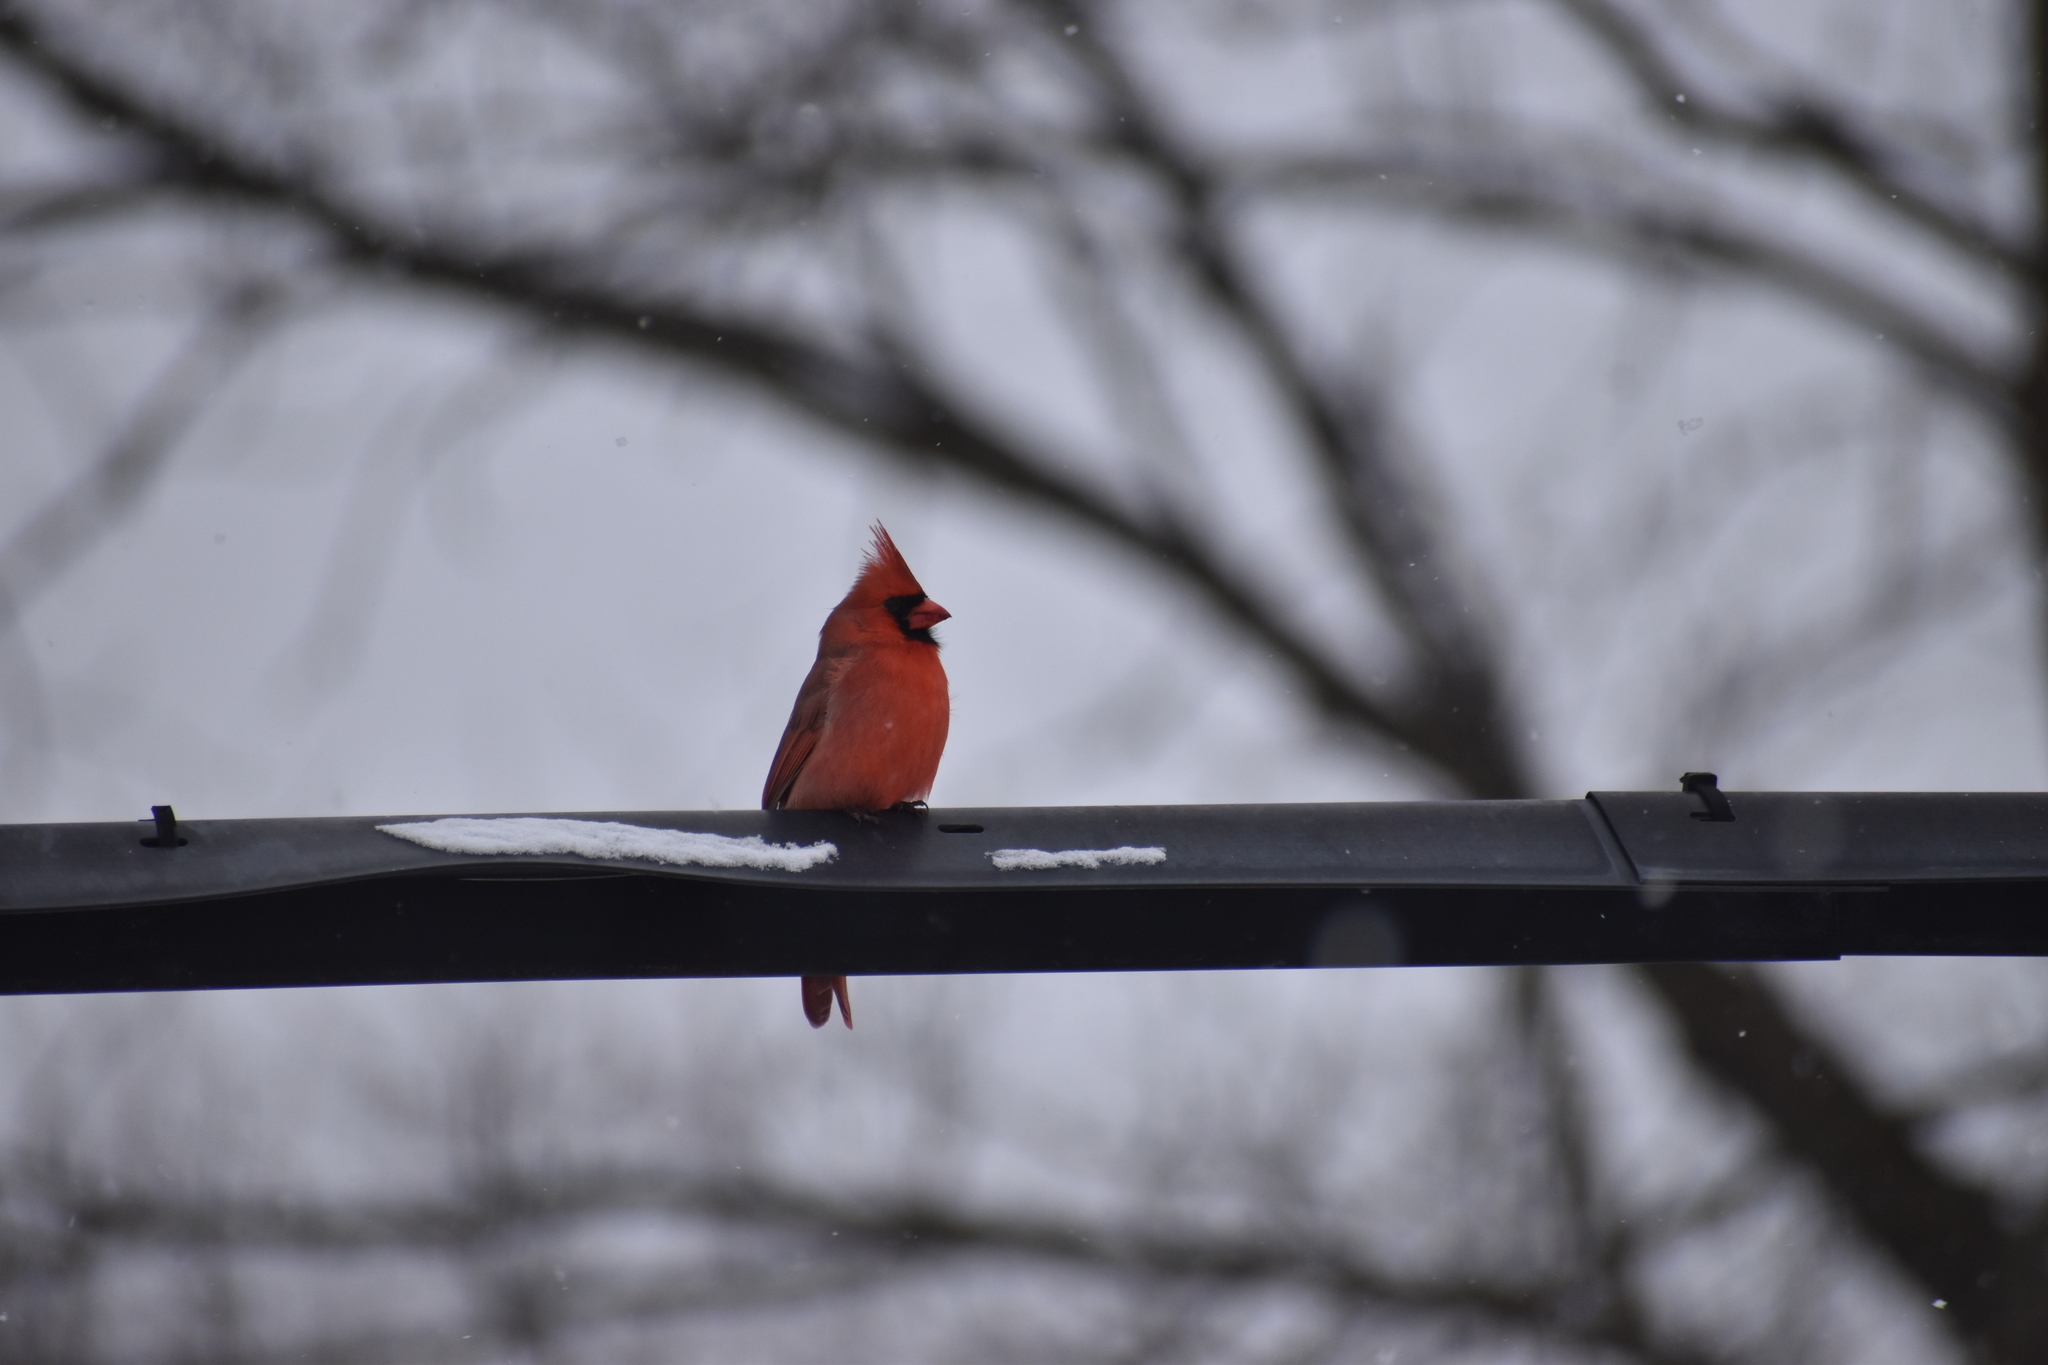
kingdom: Animalia
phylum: Chordata
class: Aves
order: Passeriformes
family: Cardinalidae
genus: Cardinalis
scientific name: Cardinalis cardinalis
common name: Northern cardinal
